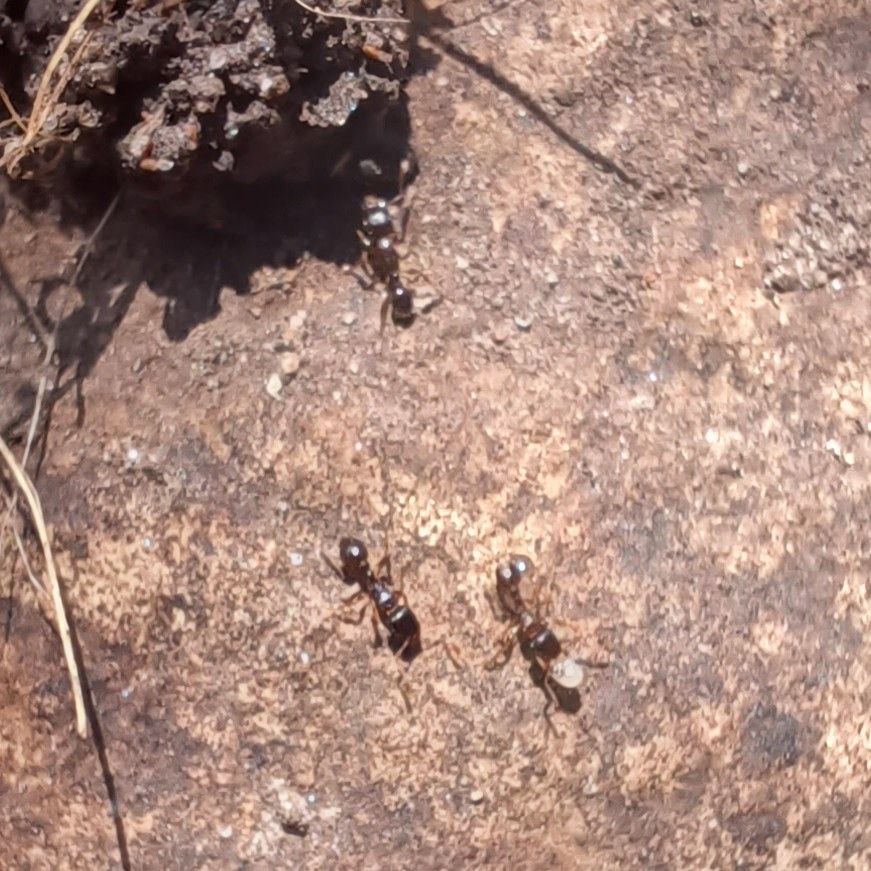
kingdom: Animalia
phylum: Arthropoda
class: Insecta
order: Hymenoptera
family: Formicidae
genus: Tetramorium
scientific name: Tetramorium immigrans
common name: Pavement ant
